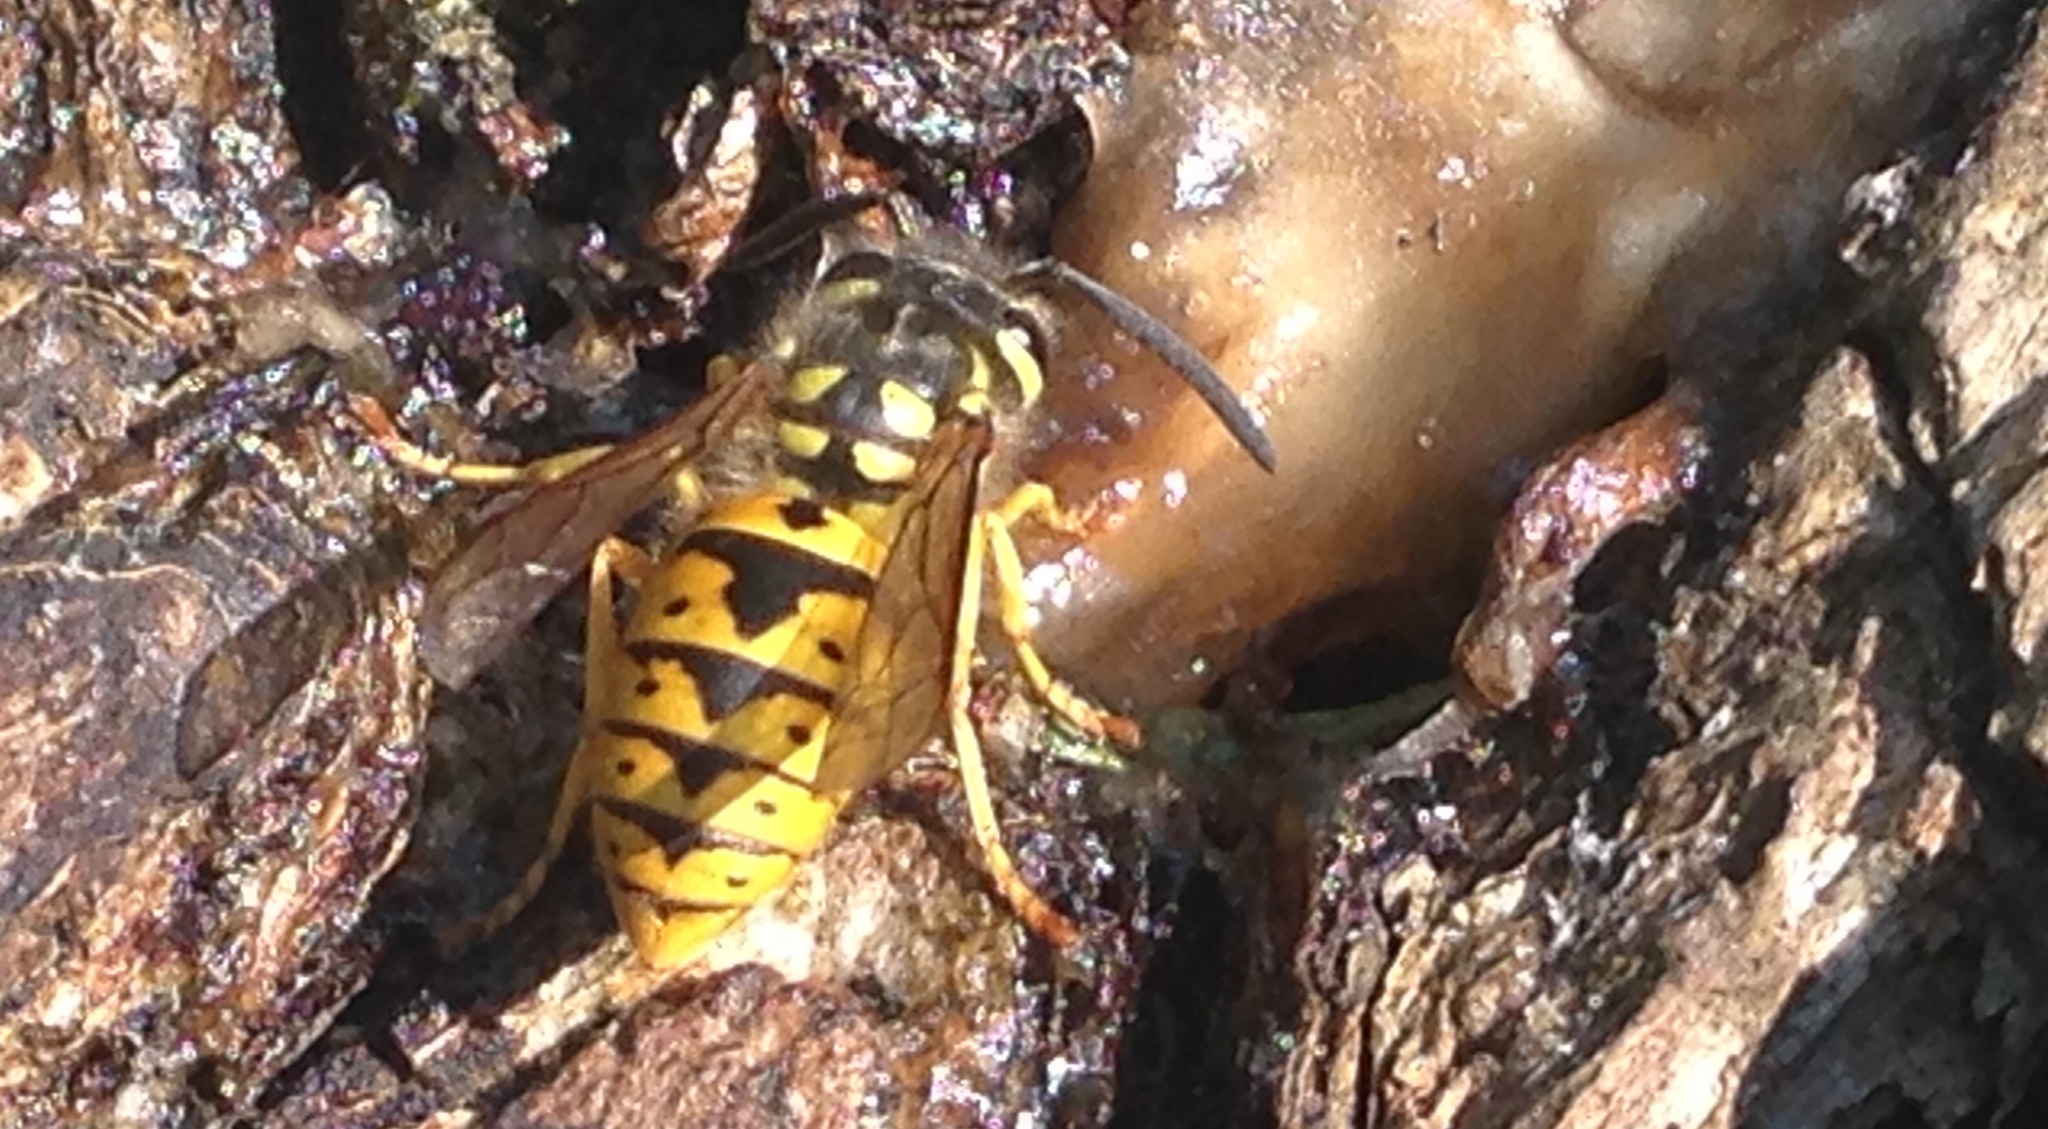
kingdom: Animalia
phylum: Arthropoda
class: Insecta
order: Hymenoptera
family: Vespidae
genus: Vespula
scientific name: Vespula germanica
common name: German wasp
